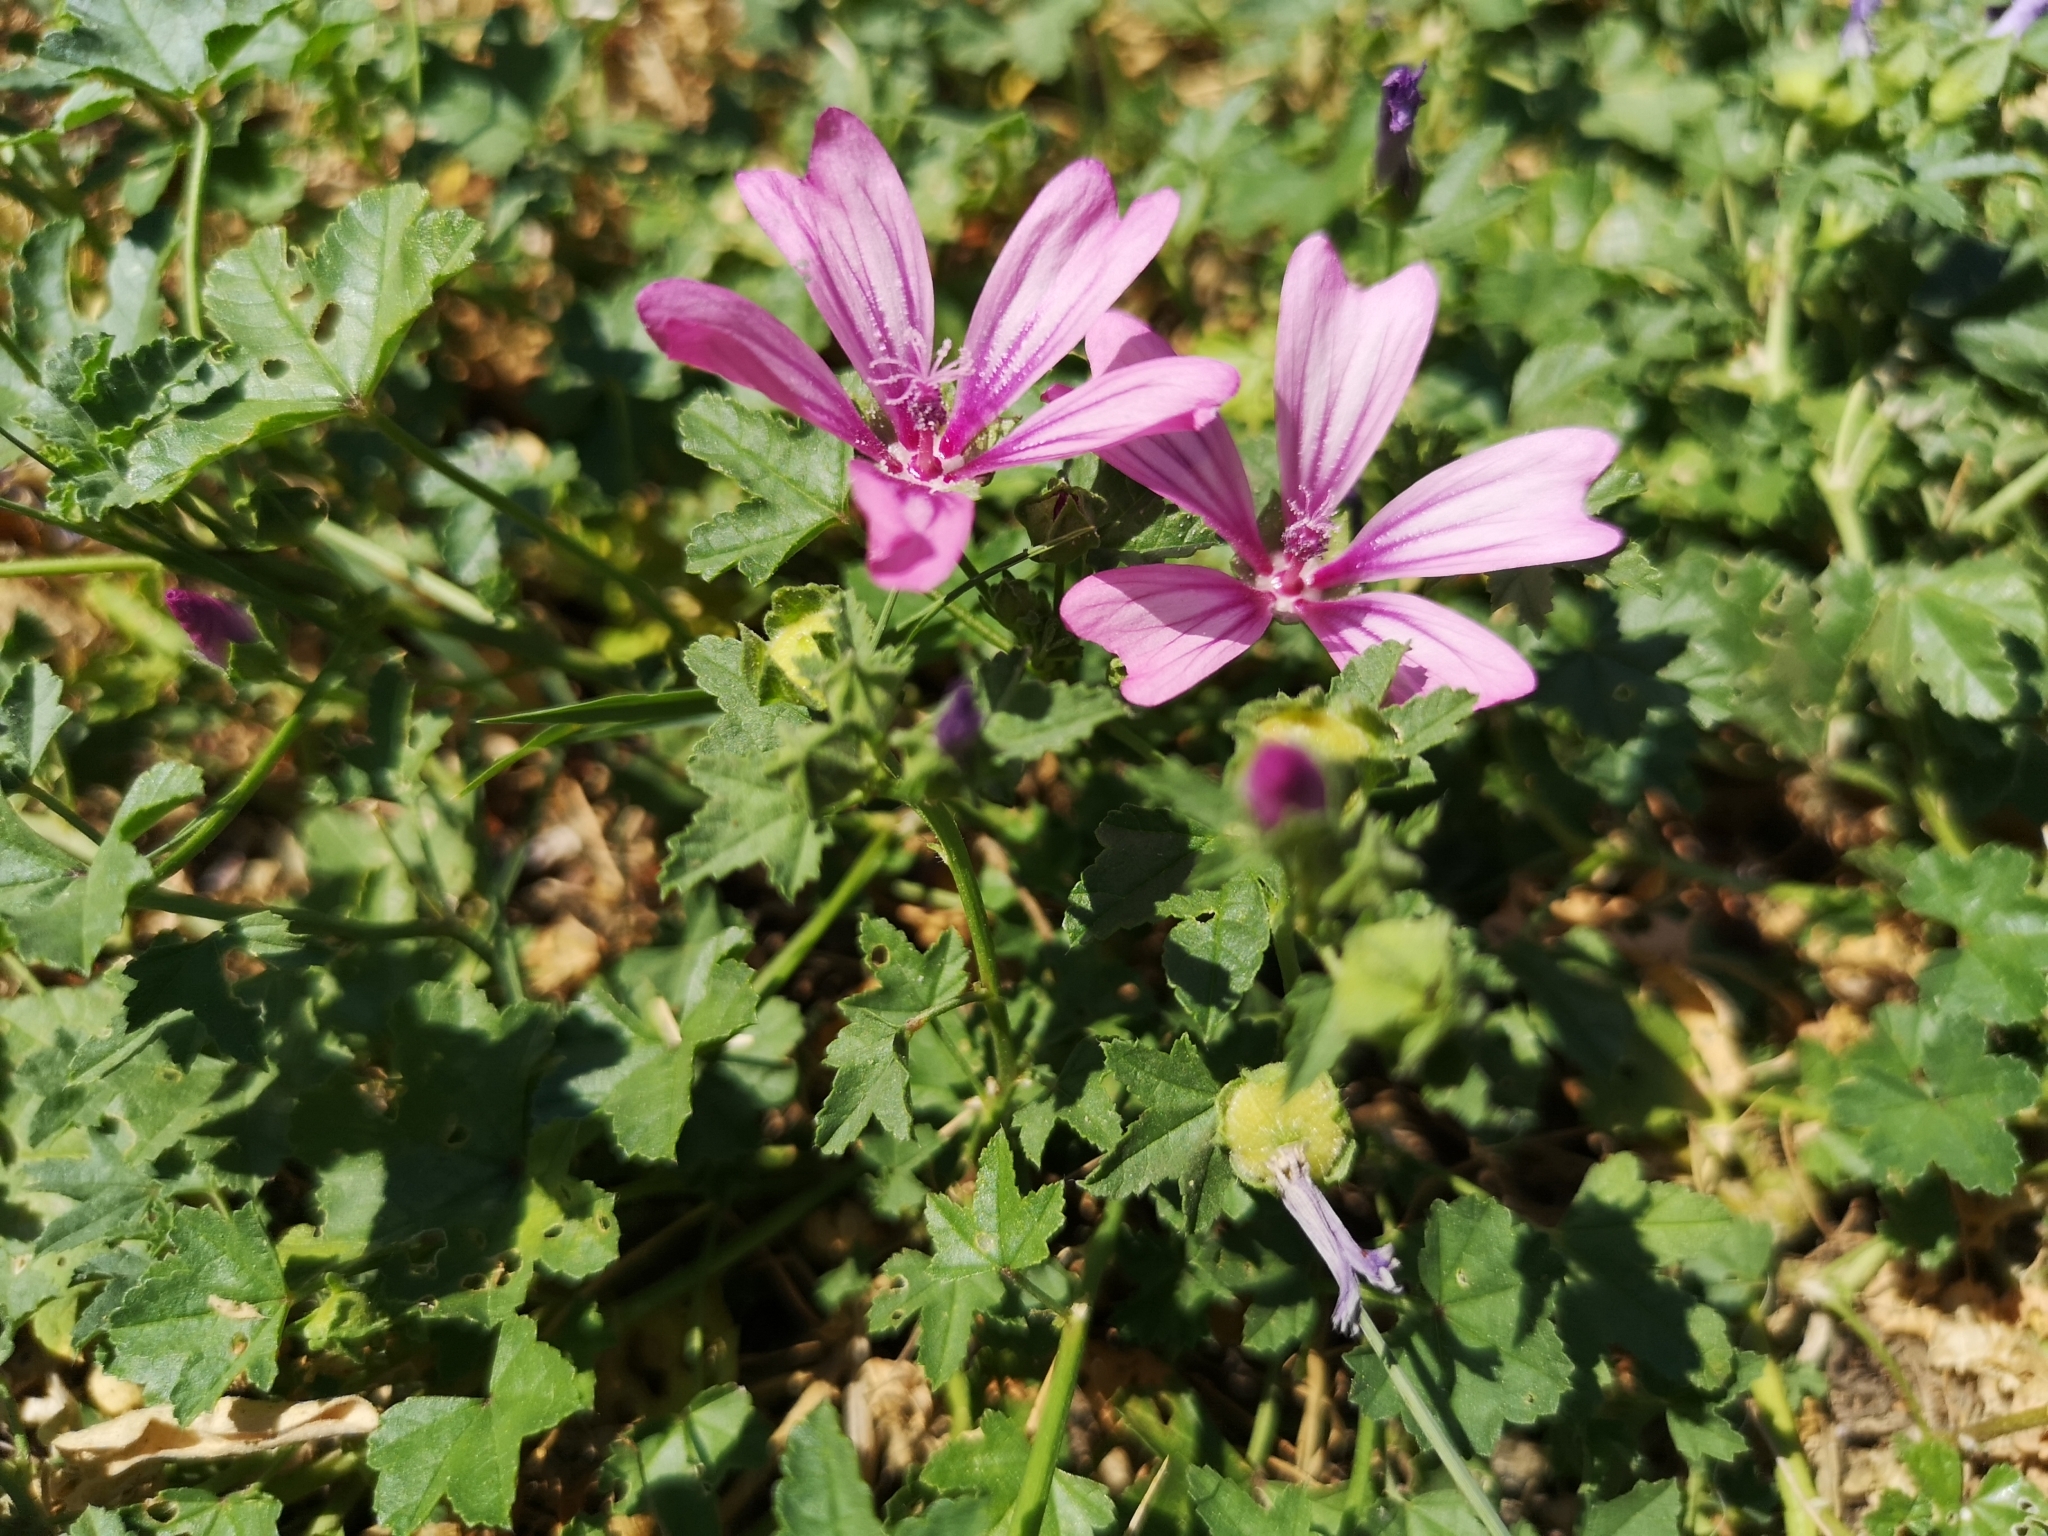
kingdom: Plantae
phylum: Tracheophyta
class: Magnoliopsida
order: Malvales
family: Malvaceae
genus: Malva
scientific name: Malva sylvestris
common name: Common mallow
